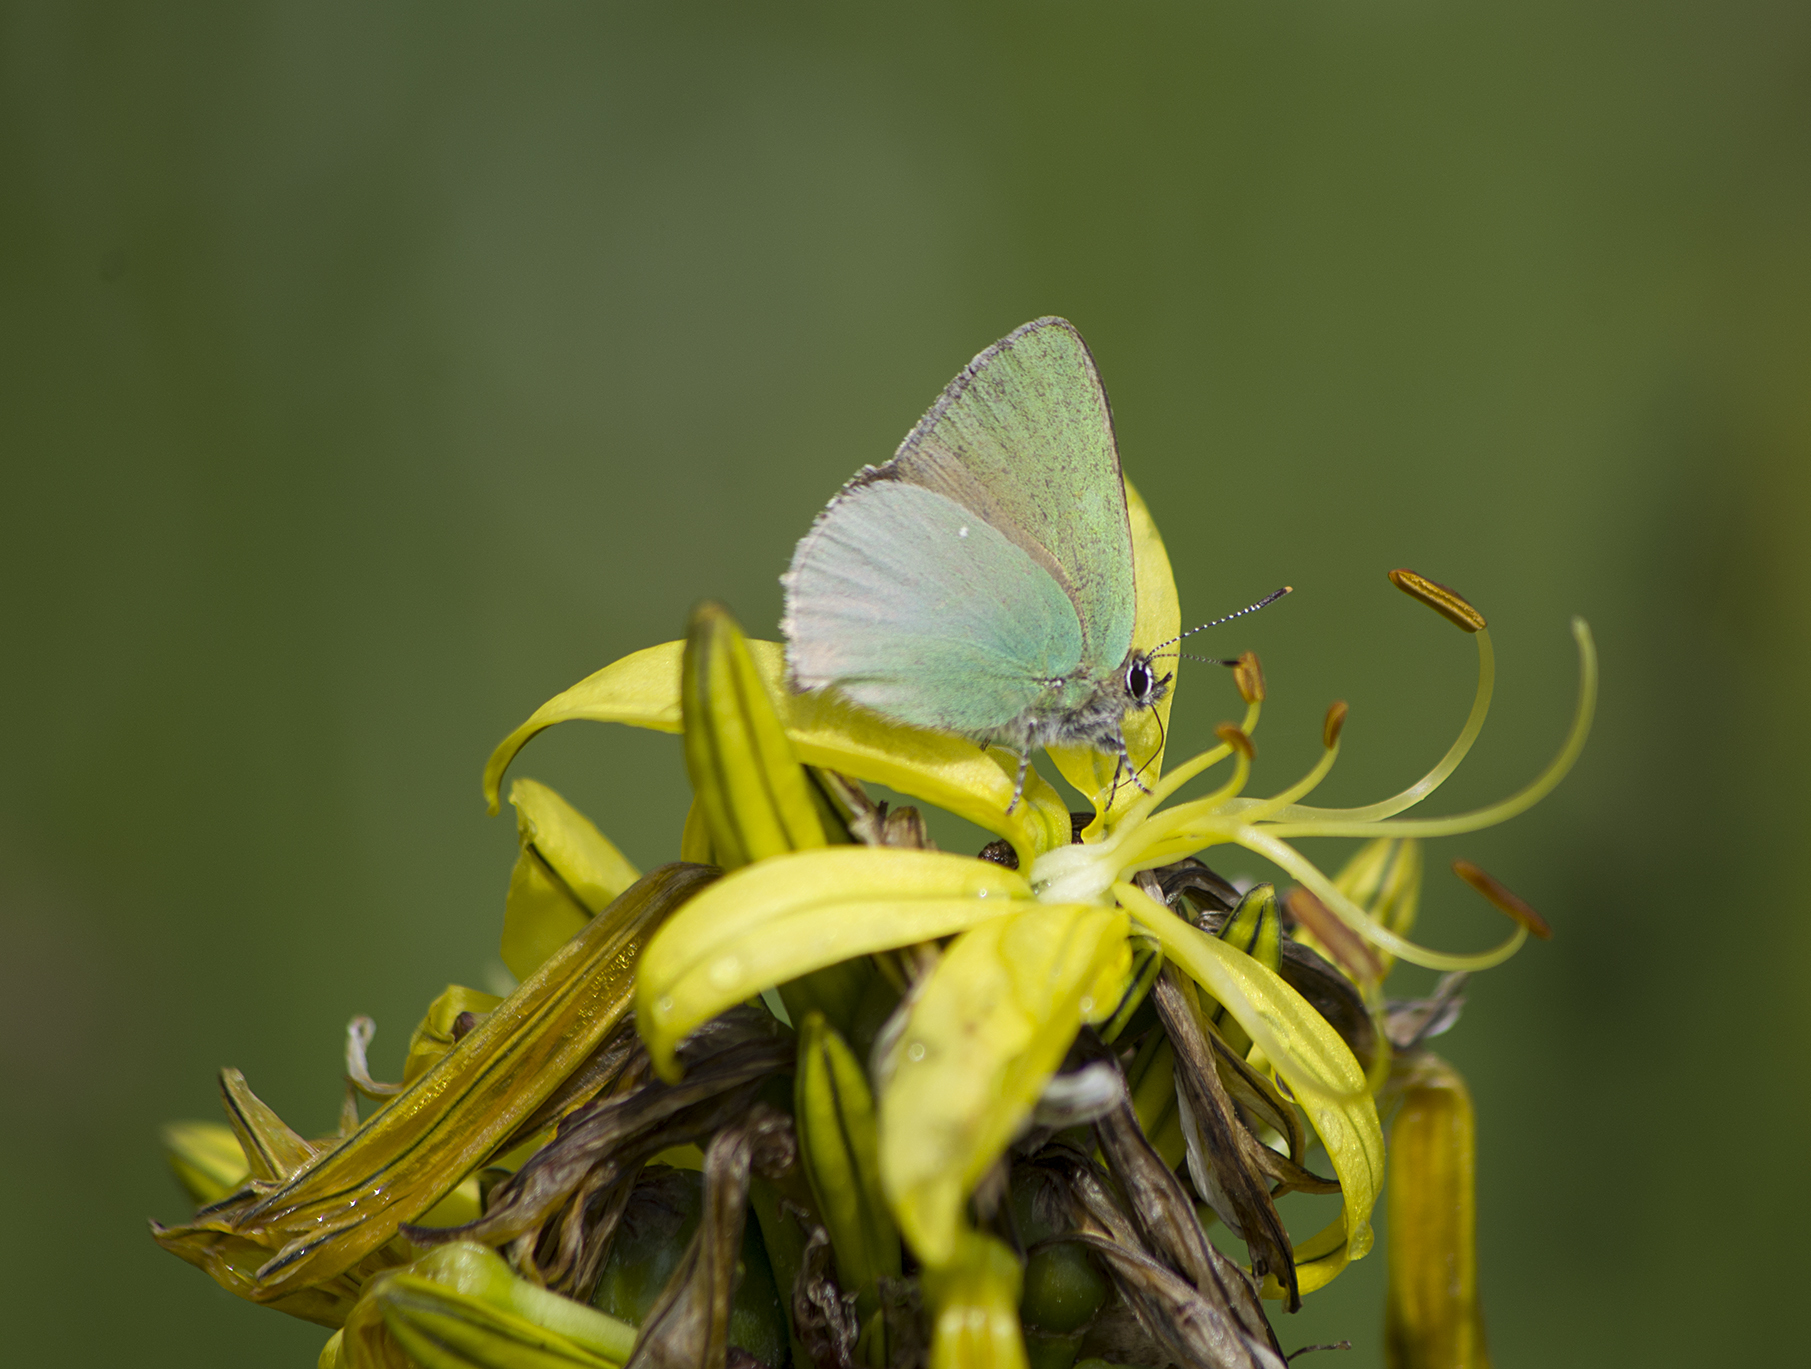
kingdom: Animalia
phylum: Arthropoda
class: Insecta
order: Lepidoptera
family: Lycaenidae
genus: Callophrys
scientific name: Callophrys rubi
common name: Green hairstreak
